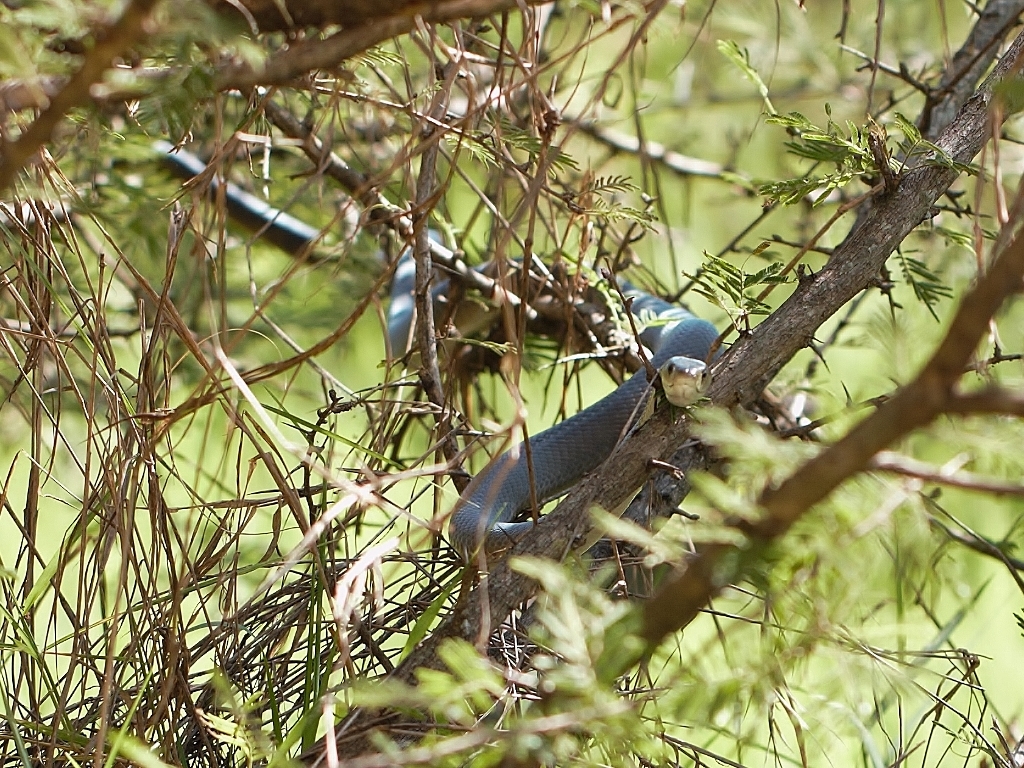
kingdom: Animalia
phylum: Chordata
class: Squamata
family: Elapidae
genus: Dendroaspis
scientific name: Dendroaspis polylepis
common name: Black mamba
